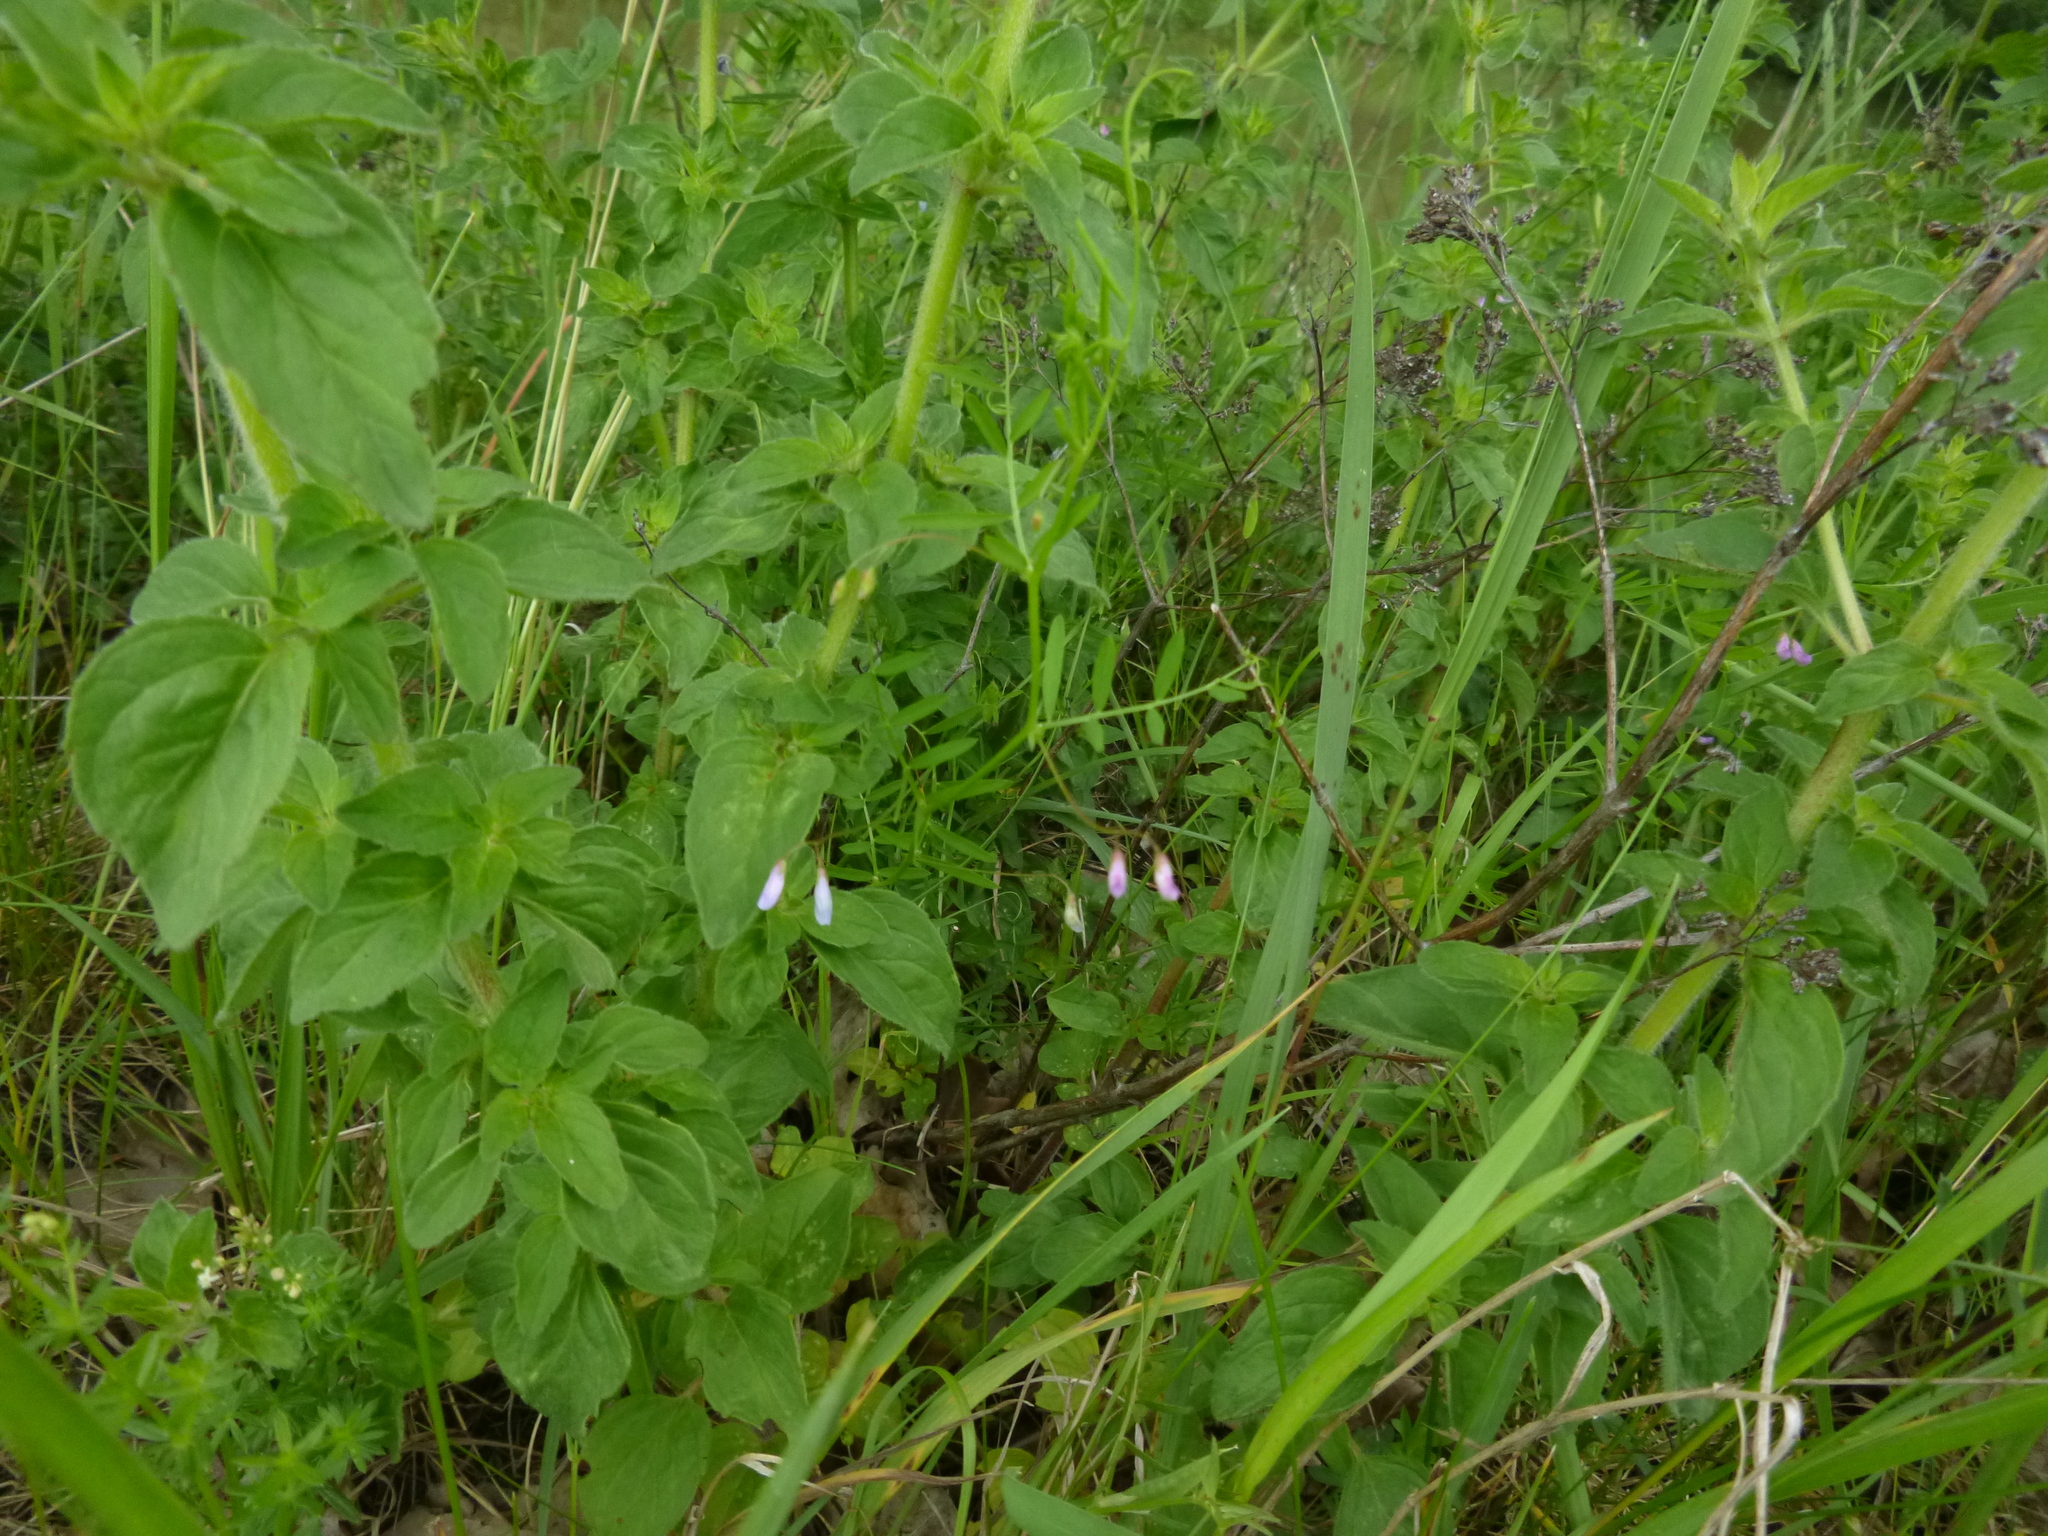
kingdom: Plantae
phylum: Tracheophyta
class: Magnoliopsida
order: Fabales
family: Fabaceae
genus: Vicia
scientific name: Vicia tetrasperma
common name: Smooth tare
